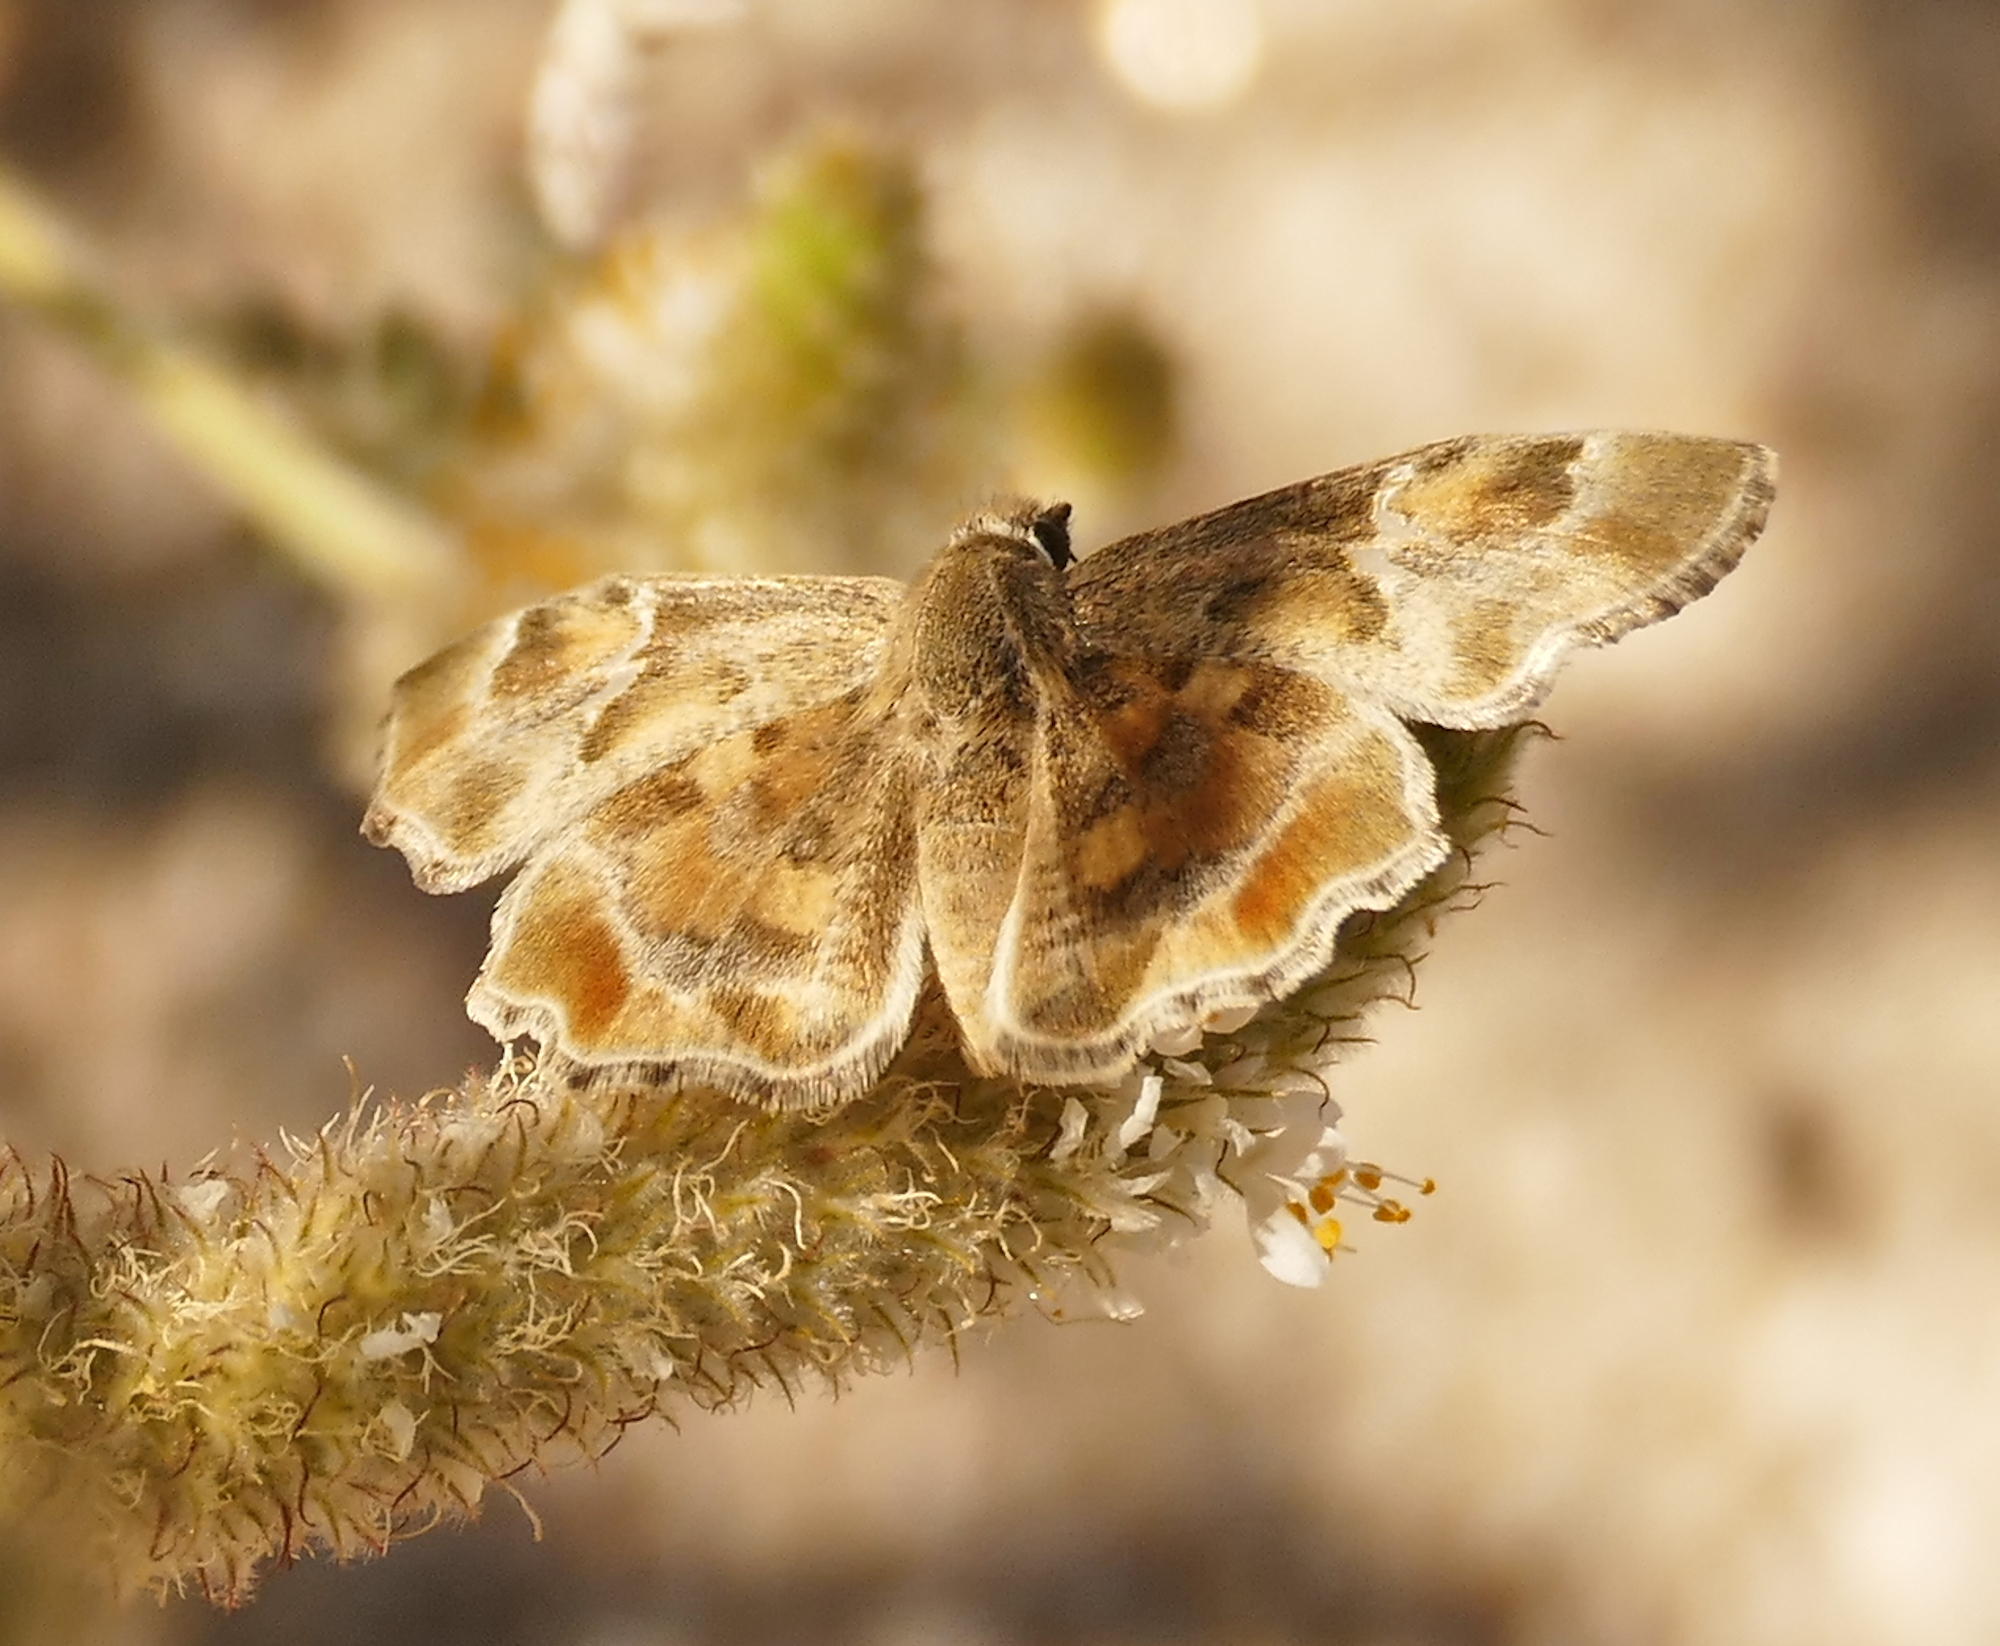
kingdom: Animalia
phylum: Arthropoda
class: Insecta
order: Lepidoptera
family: Hesperiidae
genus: Systasea
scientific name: Systasea zampa
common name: Arizona powdered-skipper
